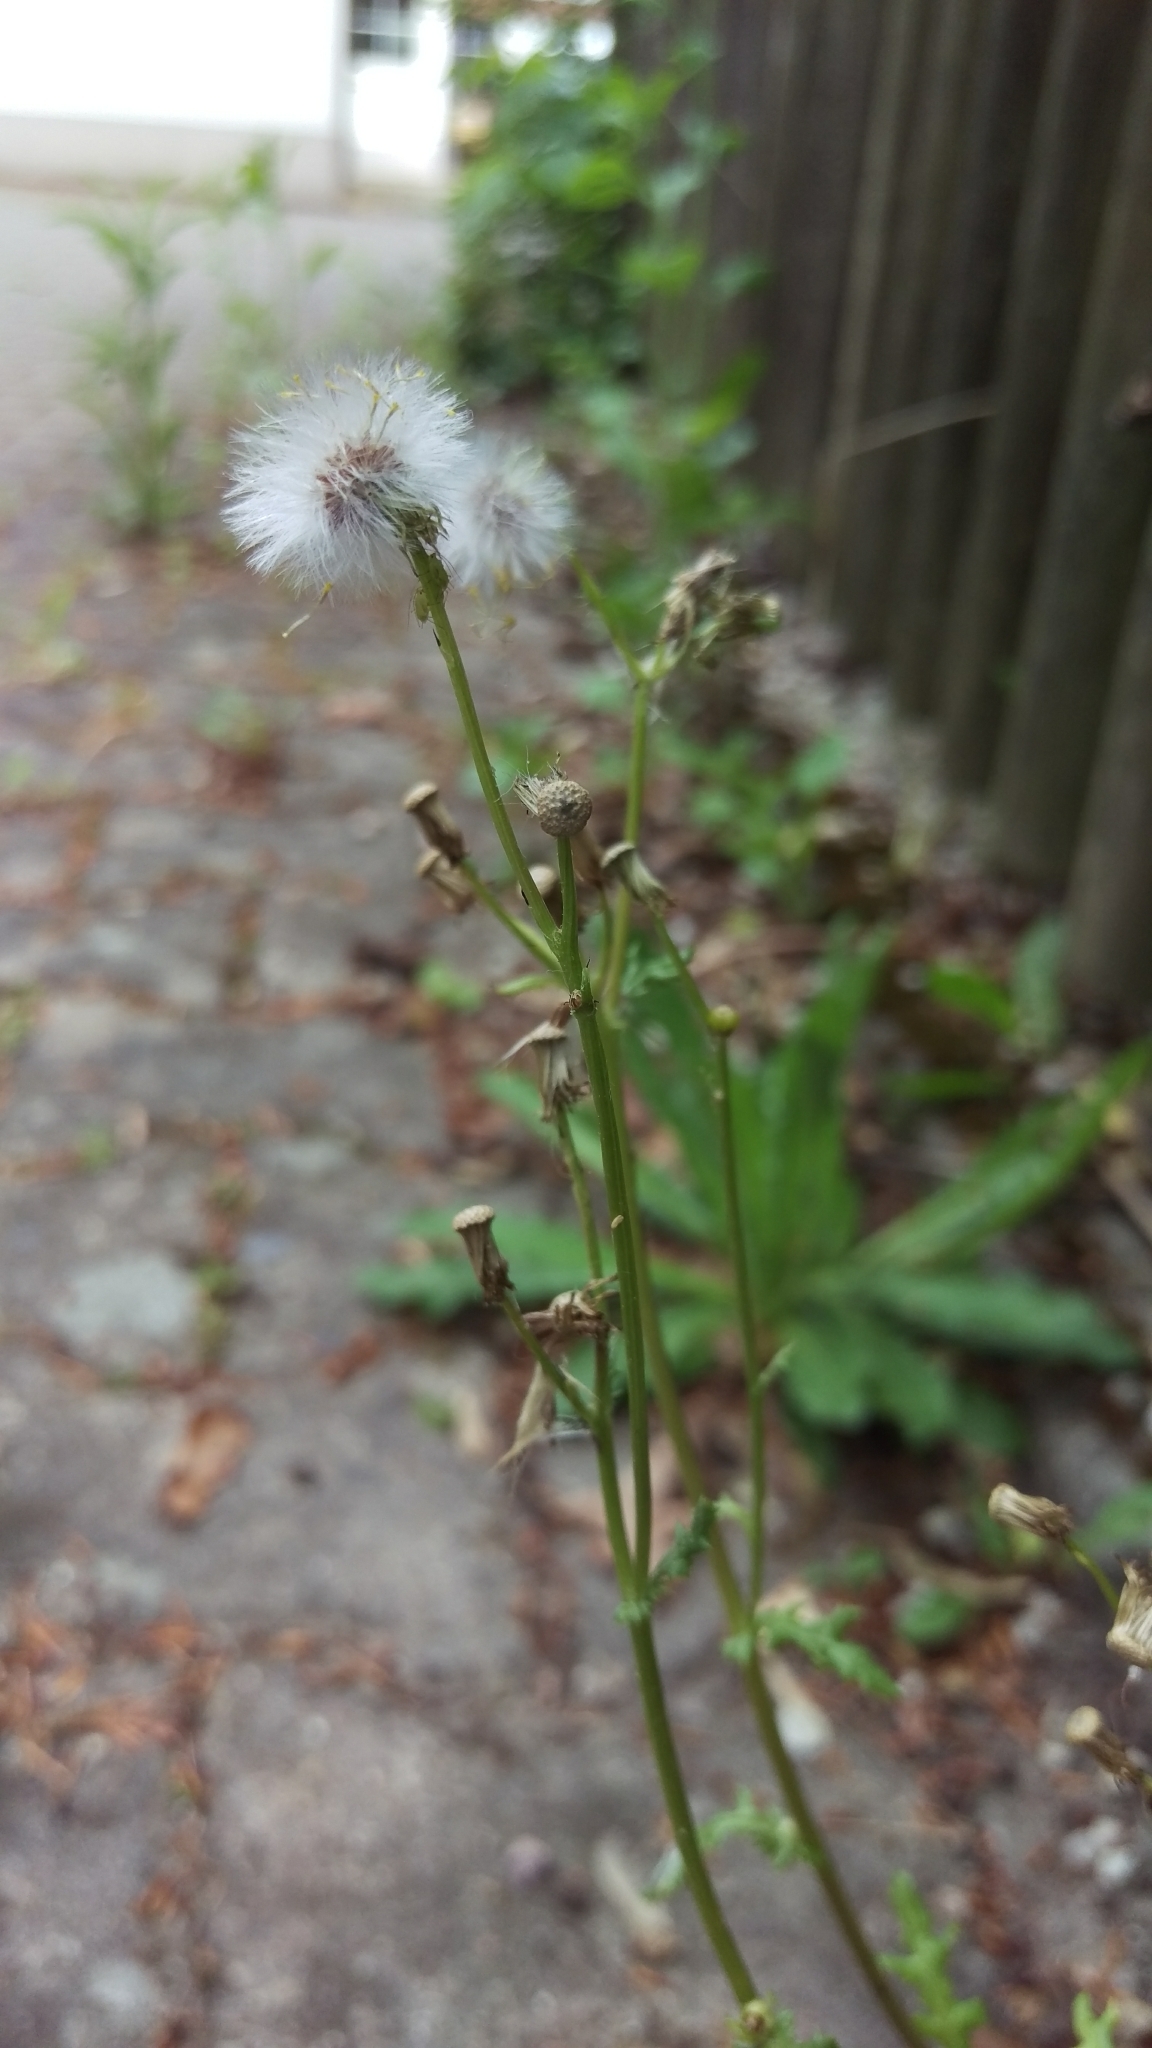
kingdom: Plantae
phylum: Tracheophyta
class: Magnoliopsida
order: Asterales
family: Asteraceae
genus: Senecio
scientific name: Senecio vulgaris
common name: Old-man-in-the-spring
